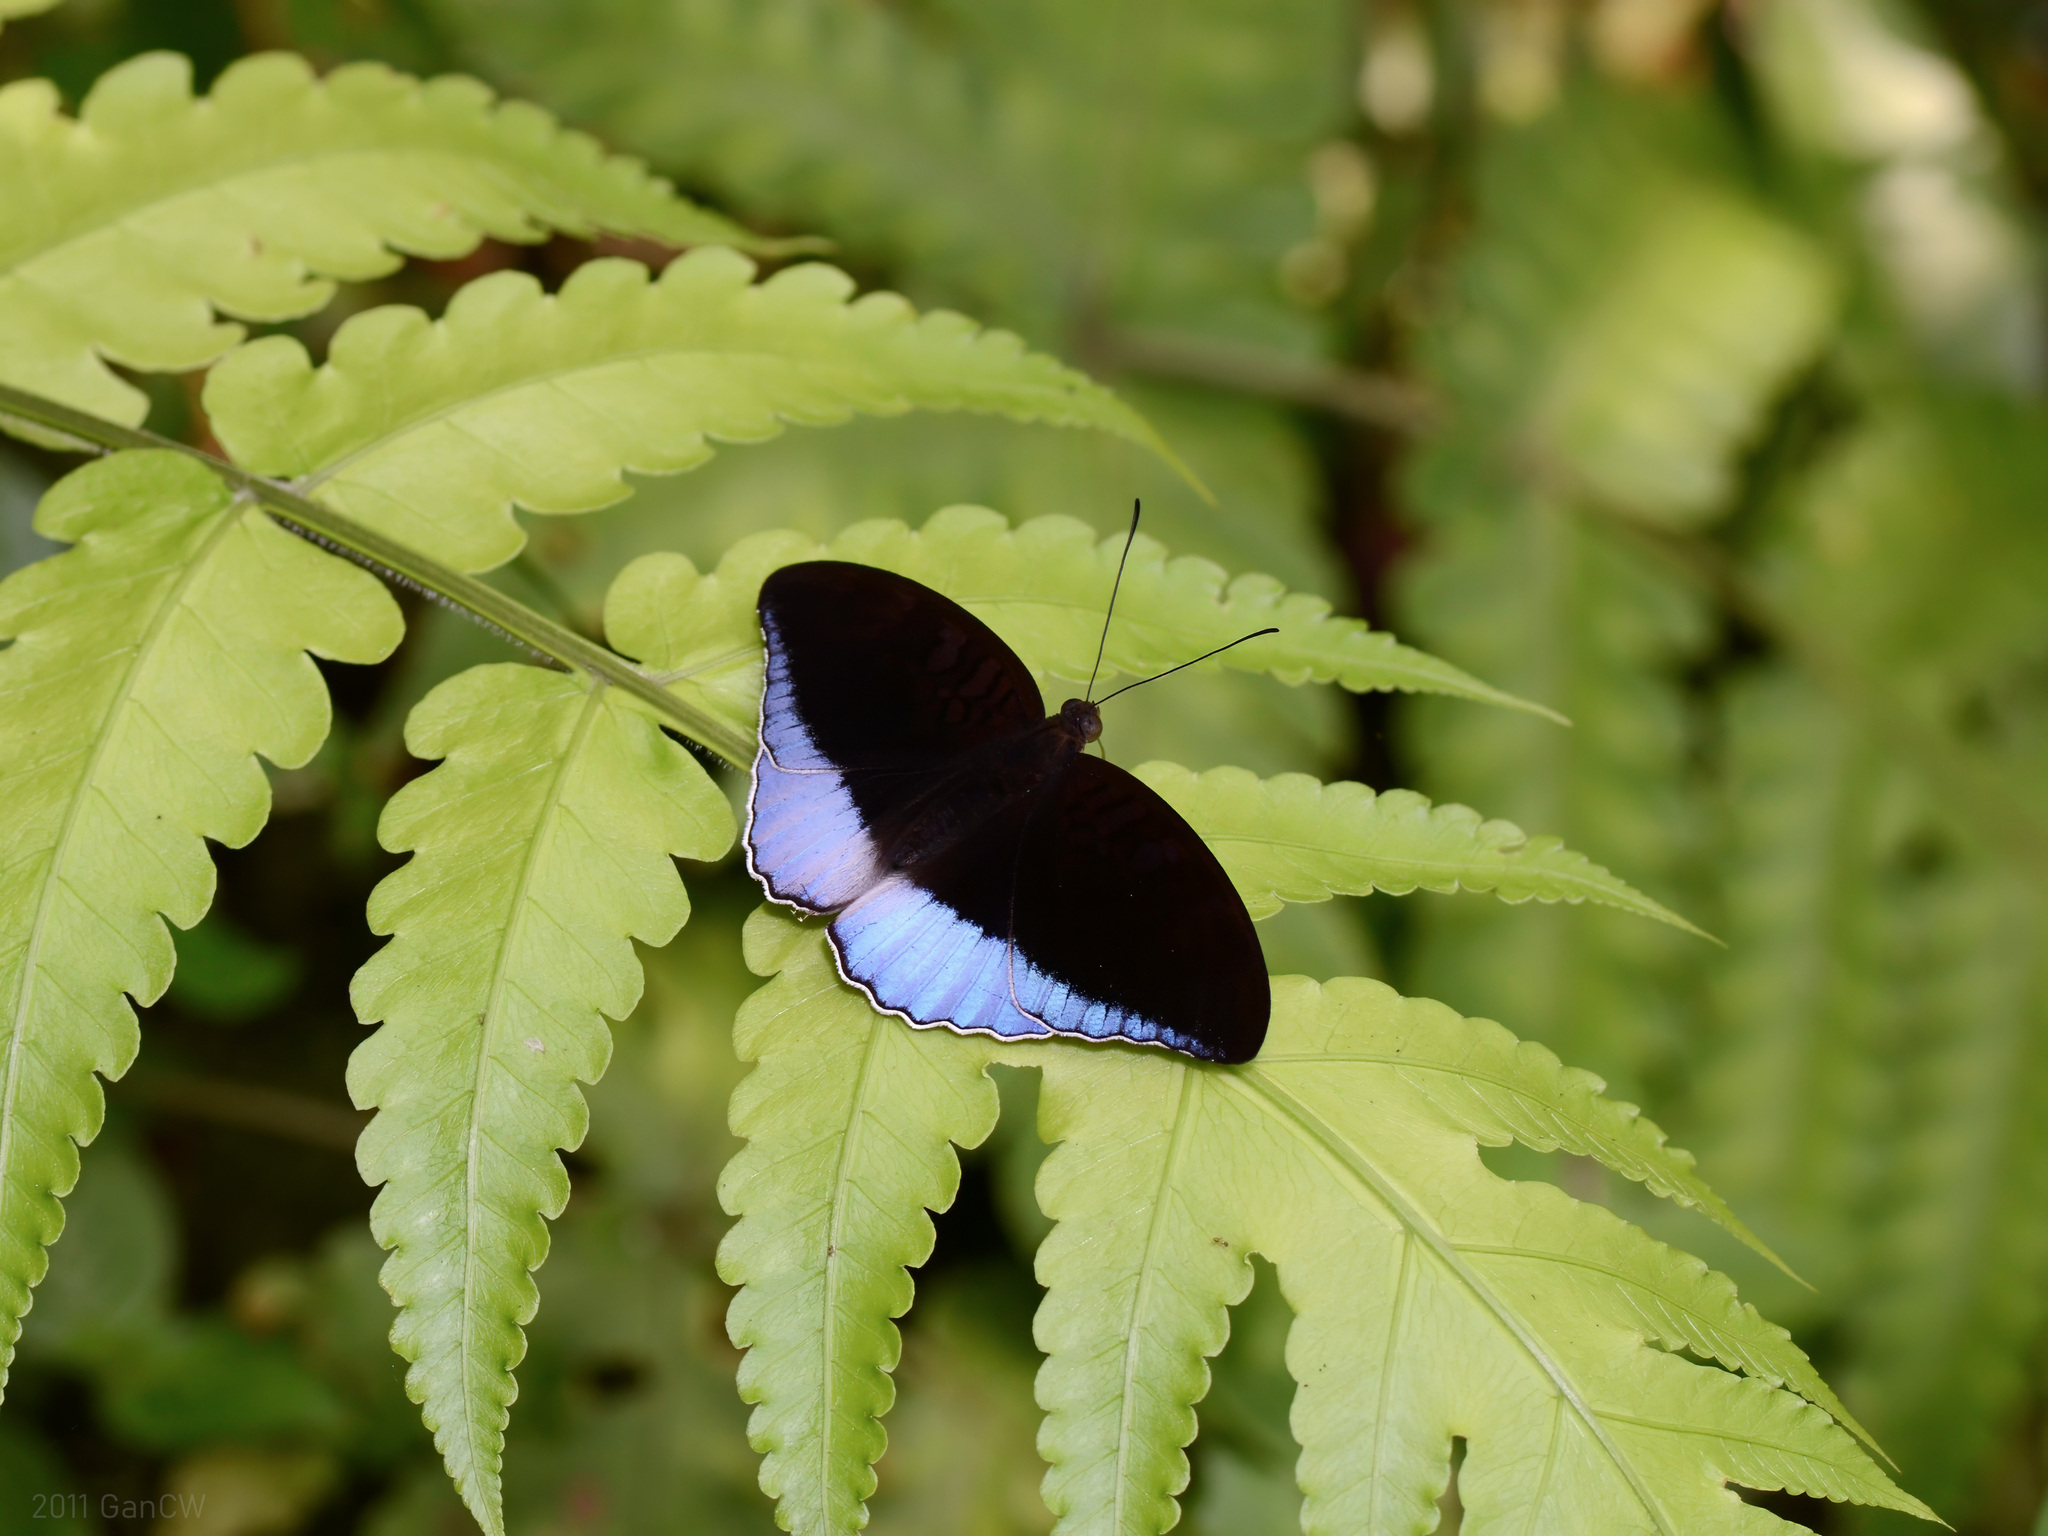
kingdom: Animalia
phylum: Arthropoda
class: Insecta
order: Lepidoptera
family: Nymphalidae
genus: Tanaecia
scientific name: Tanaecia iapis
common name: Horsfield's baron
